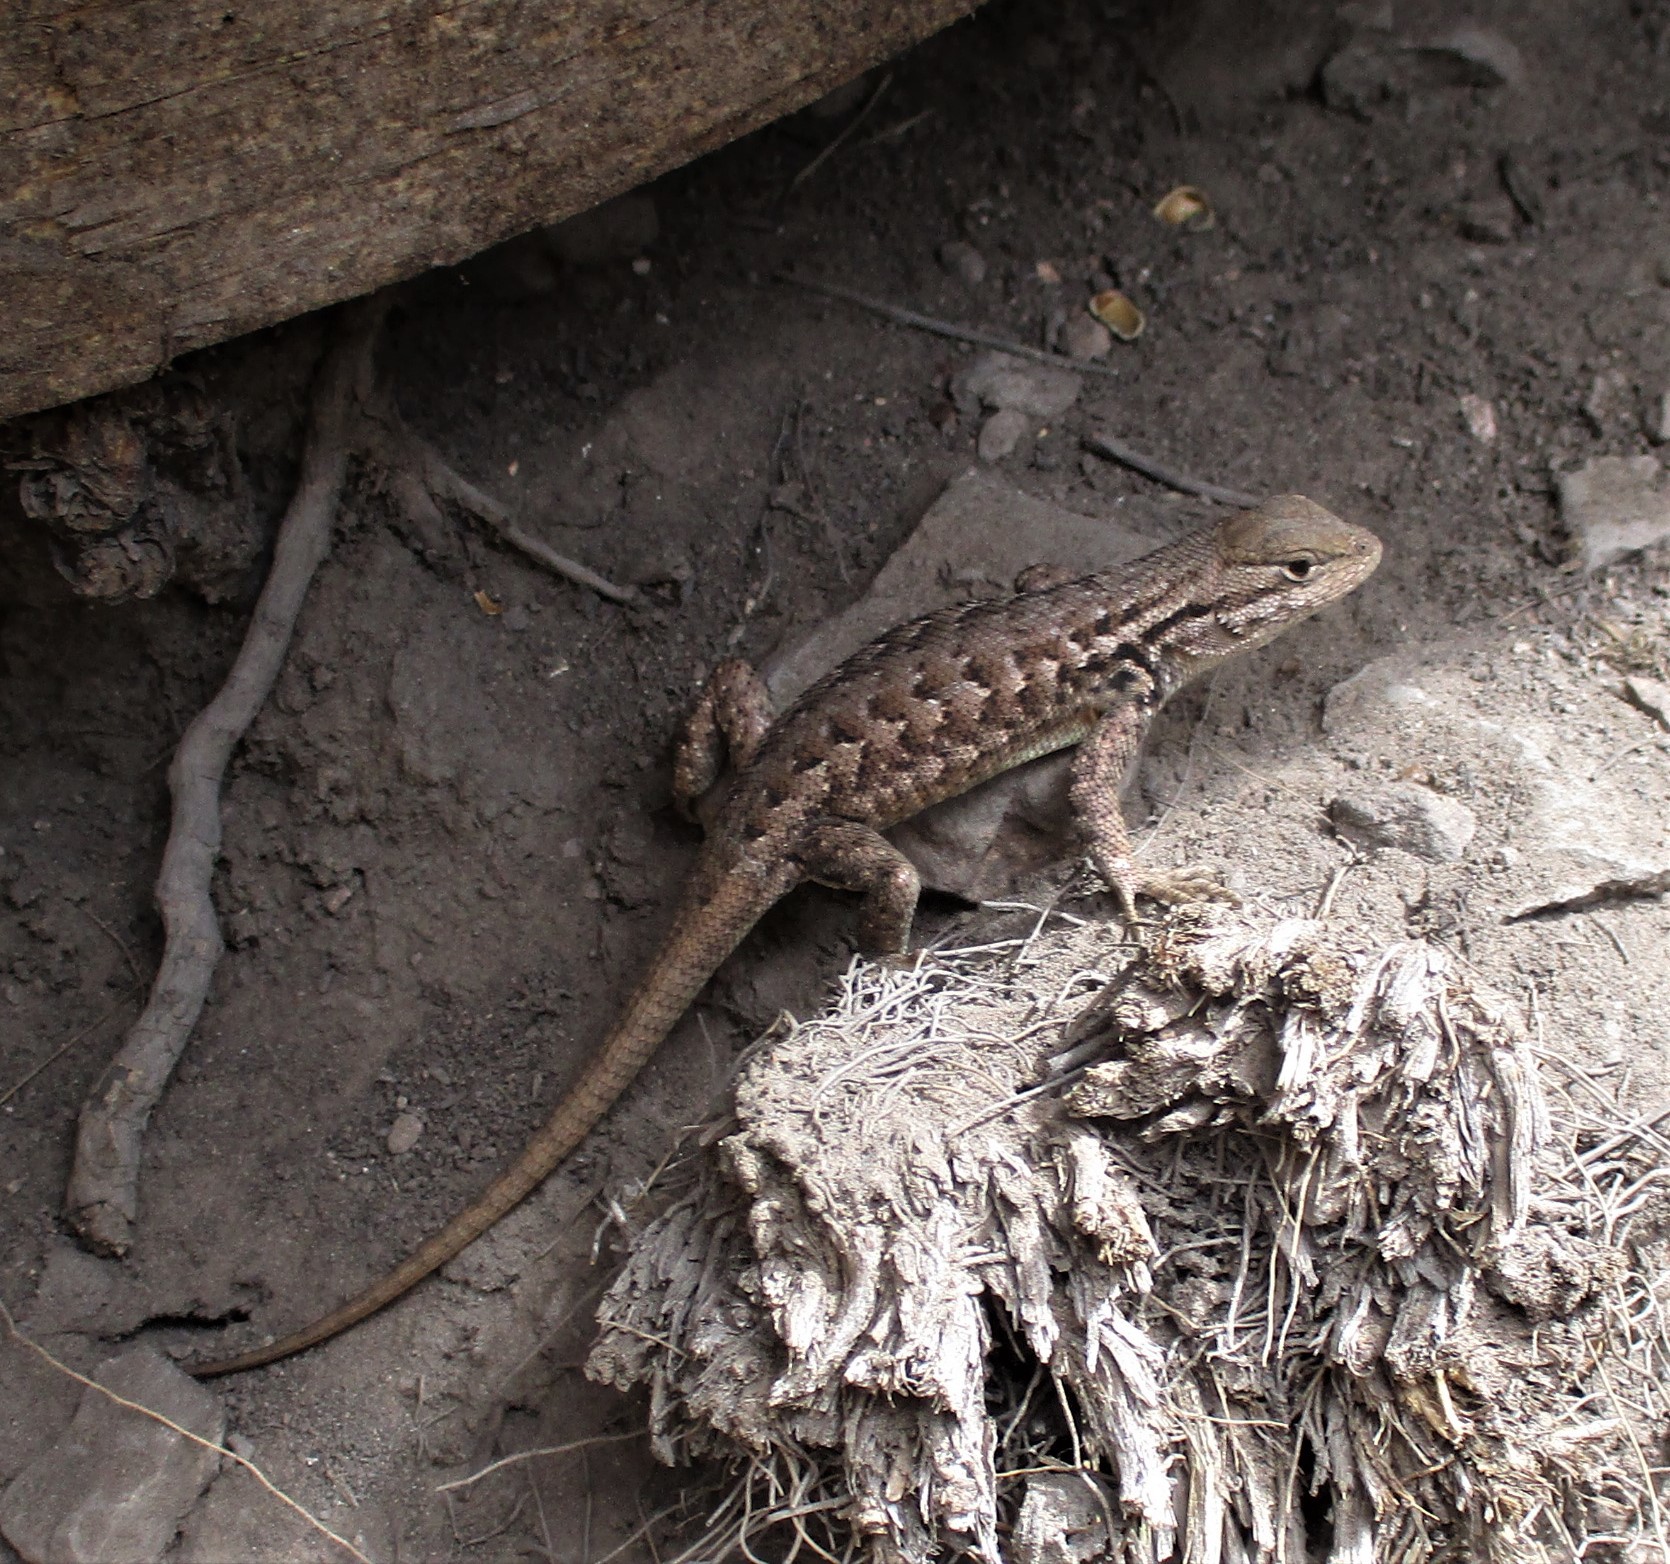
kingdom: Animalia
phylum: Chordata
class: Squamata
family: Phrynosomatidae
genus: Sceloporus
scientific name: Sceloporus graciosus
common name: Sagebrush lizard
